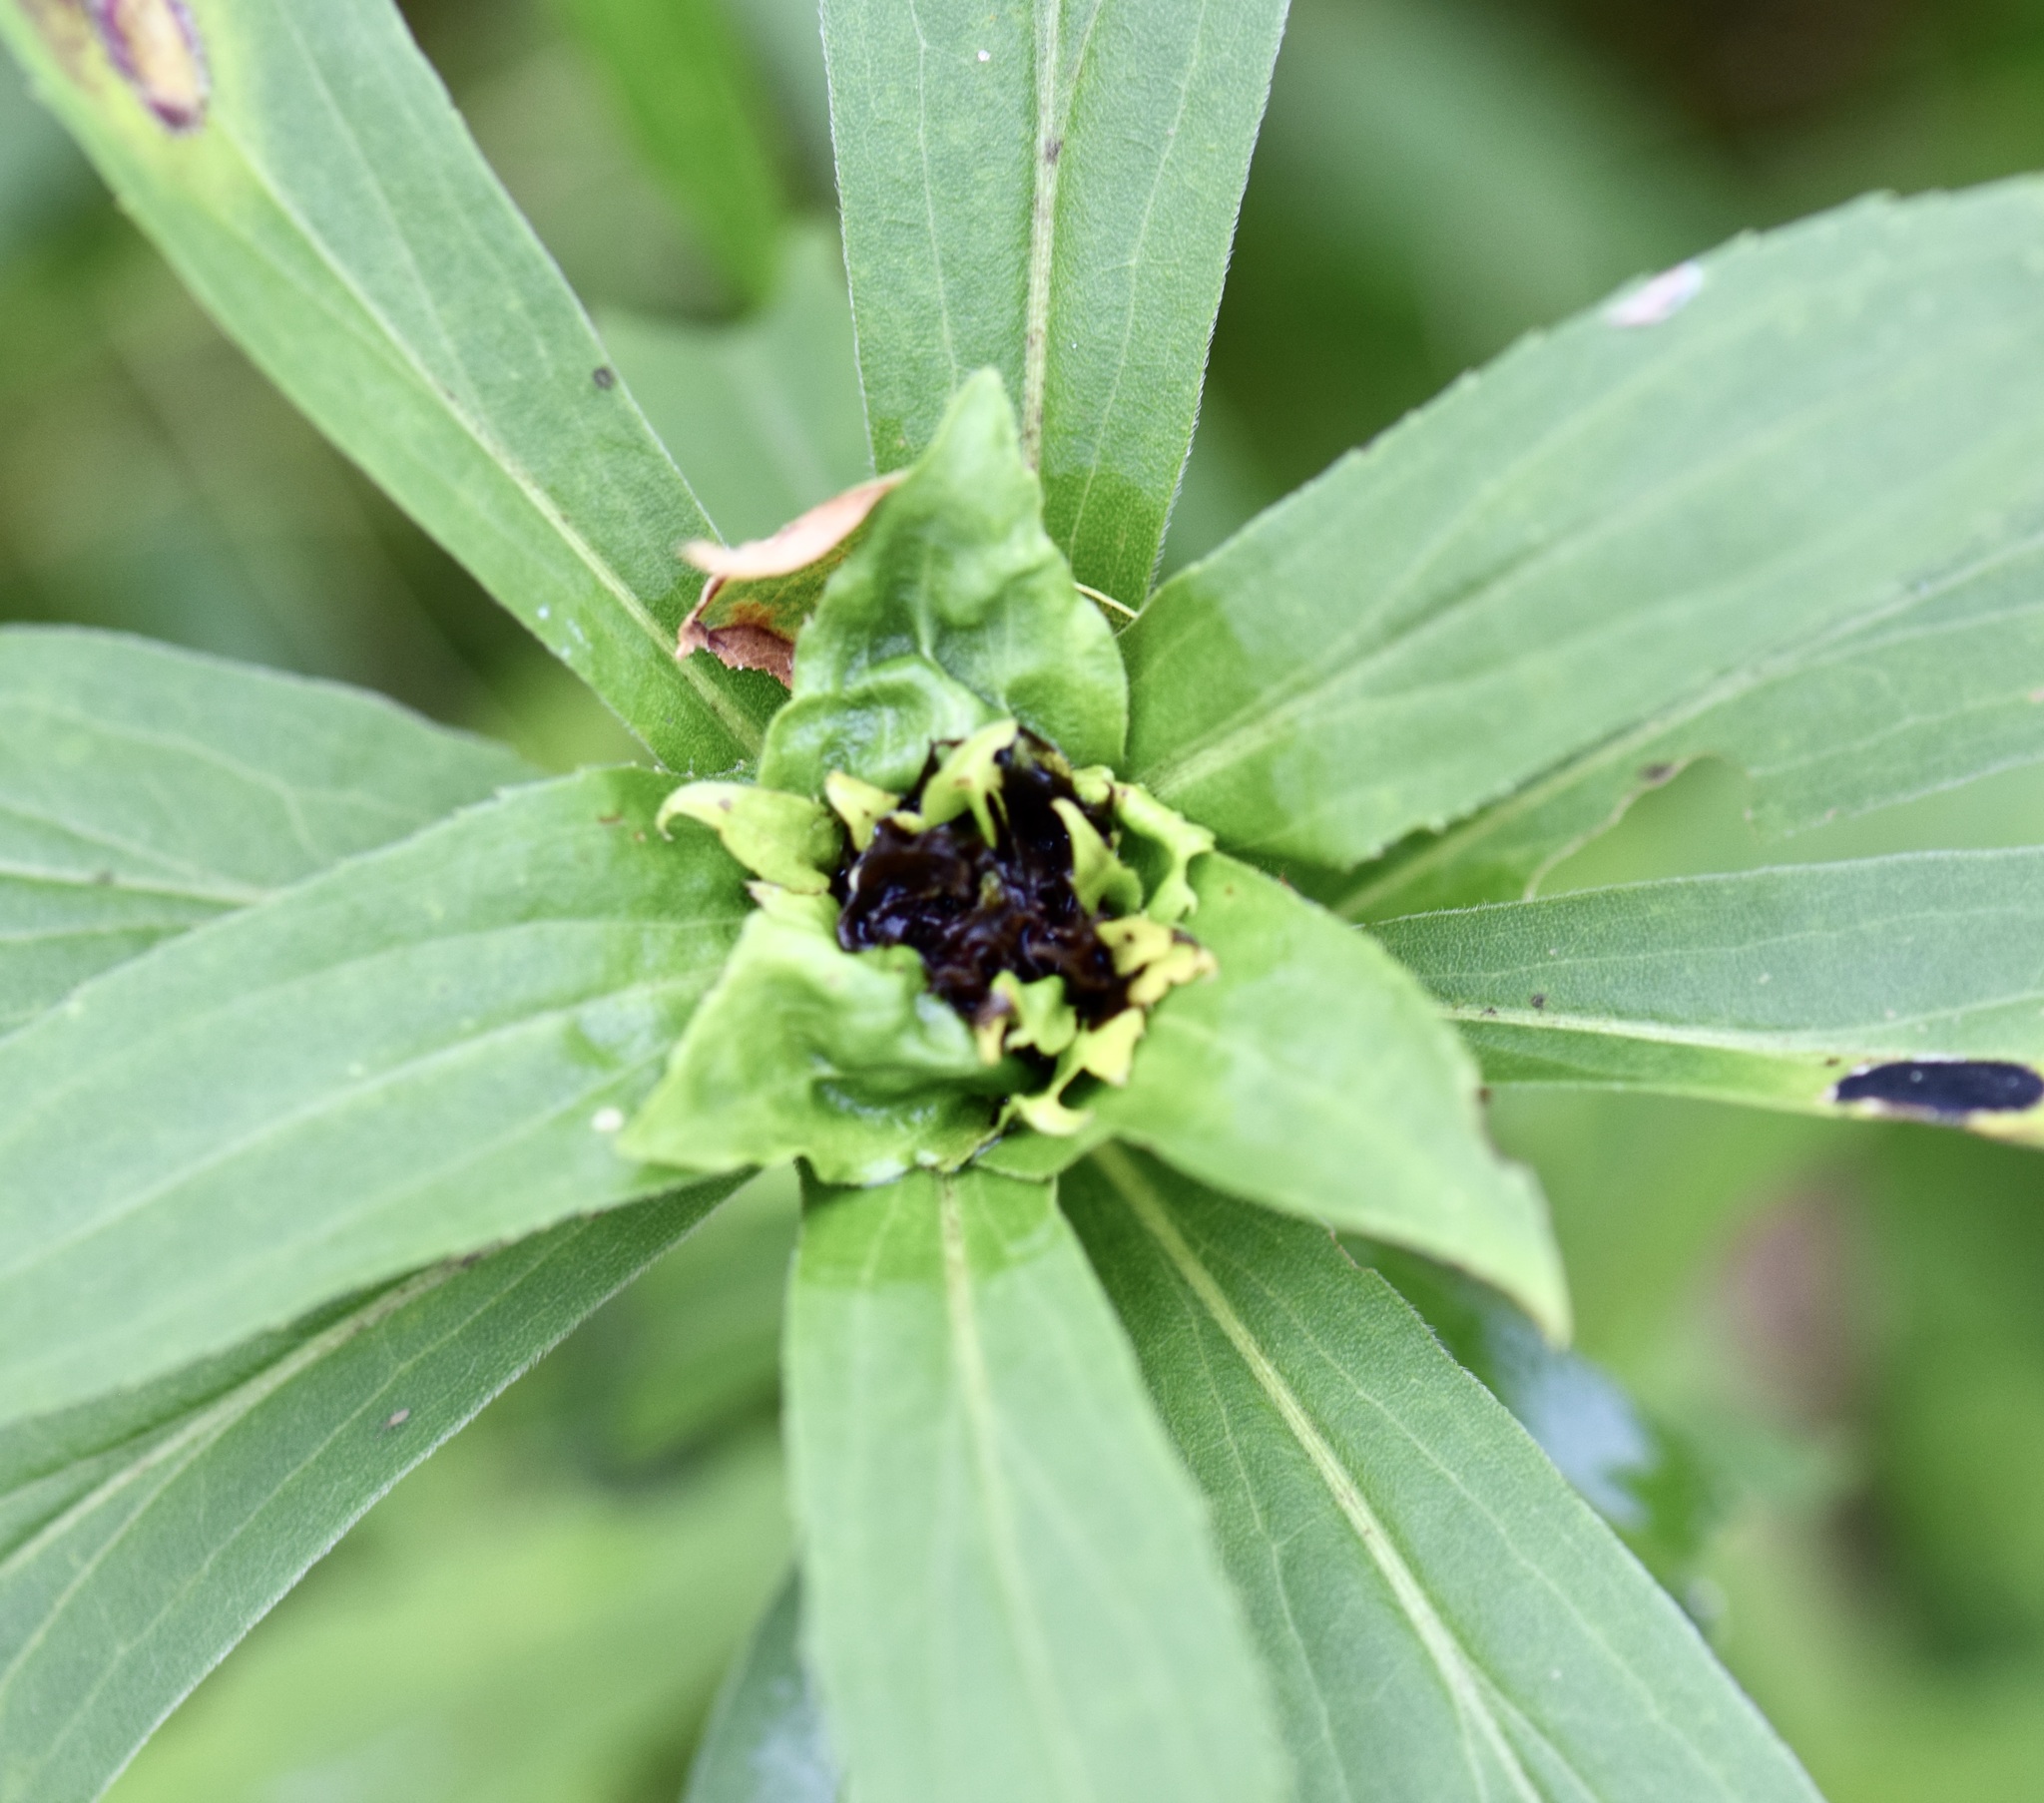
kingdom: Animalia
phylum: Arthropoda
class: Insecta
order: Diptera
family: Cecidomyiidae
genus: Rhopalomyia
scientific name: Rhopalomyia capitata
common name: Giant goldenrod bunch gall midge
